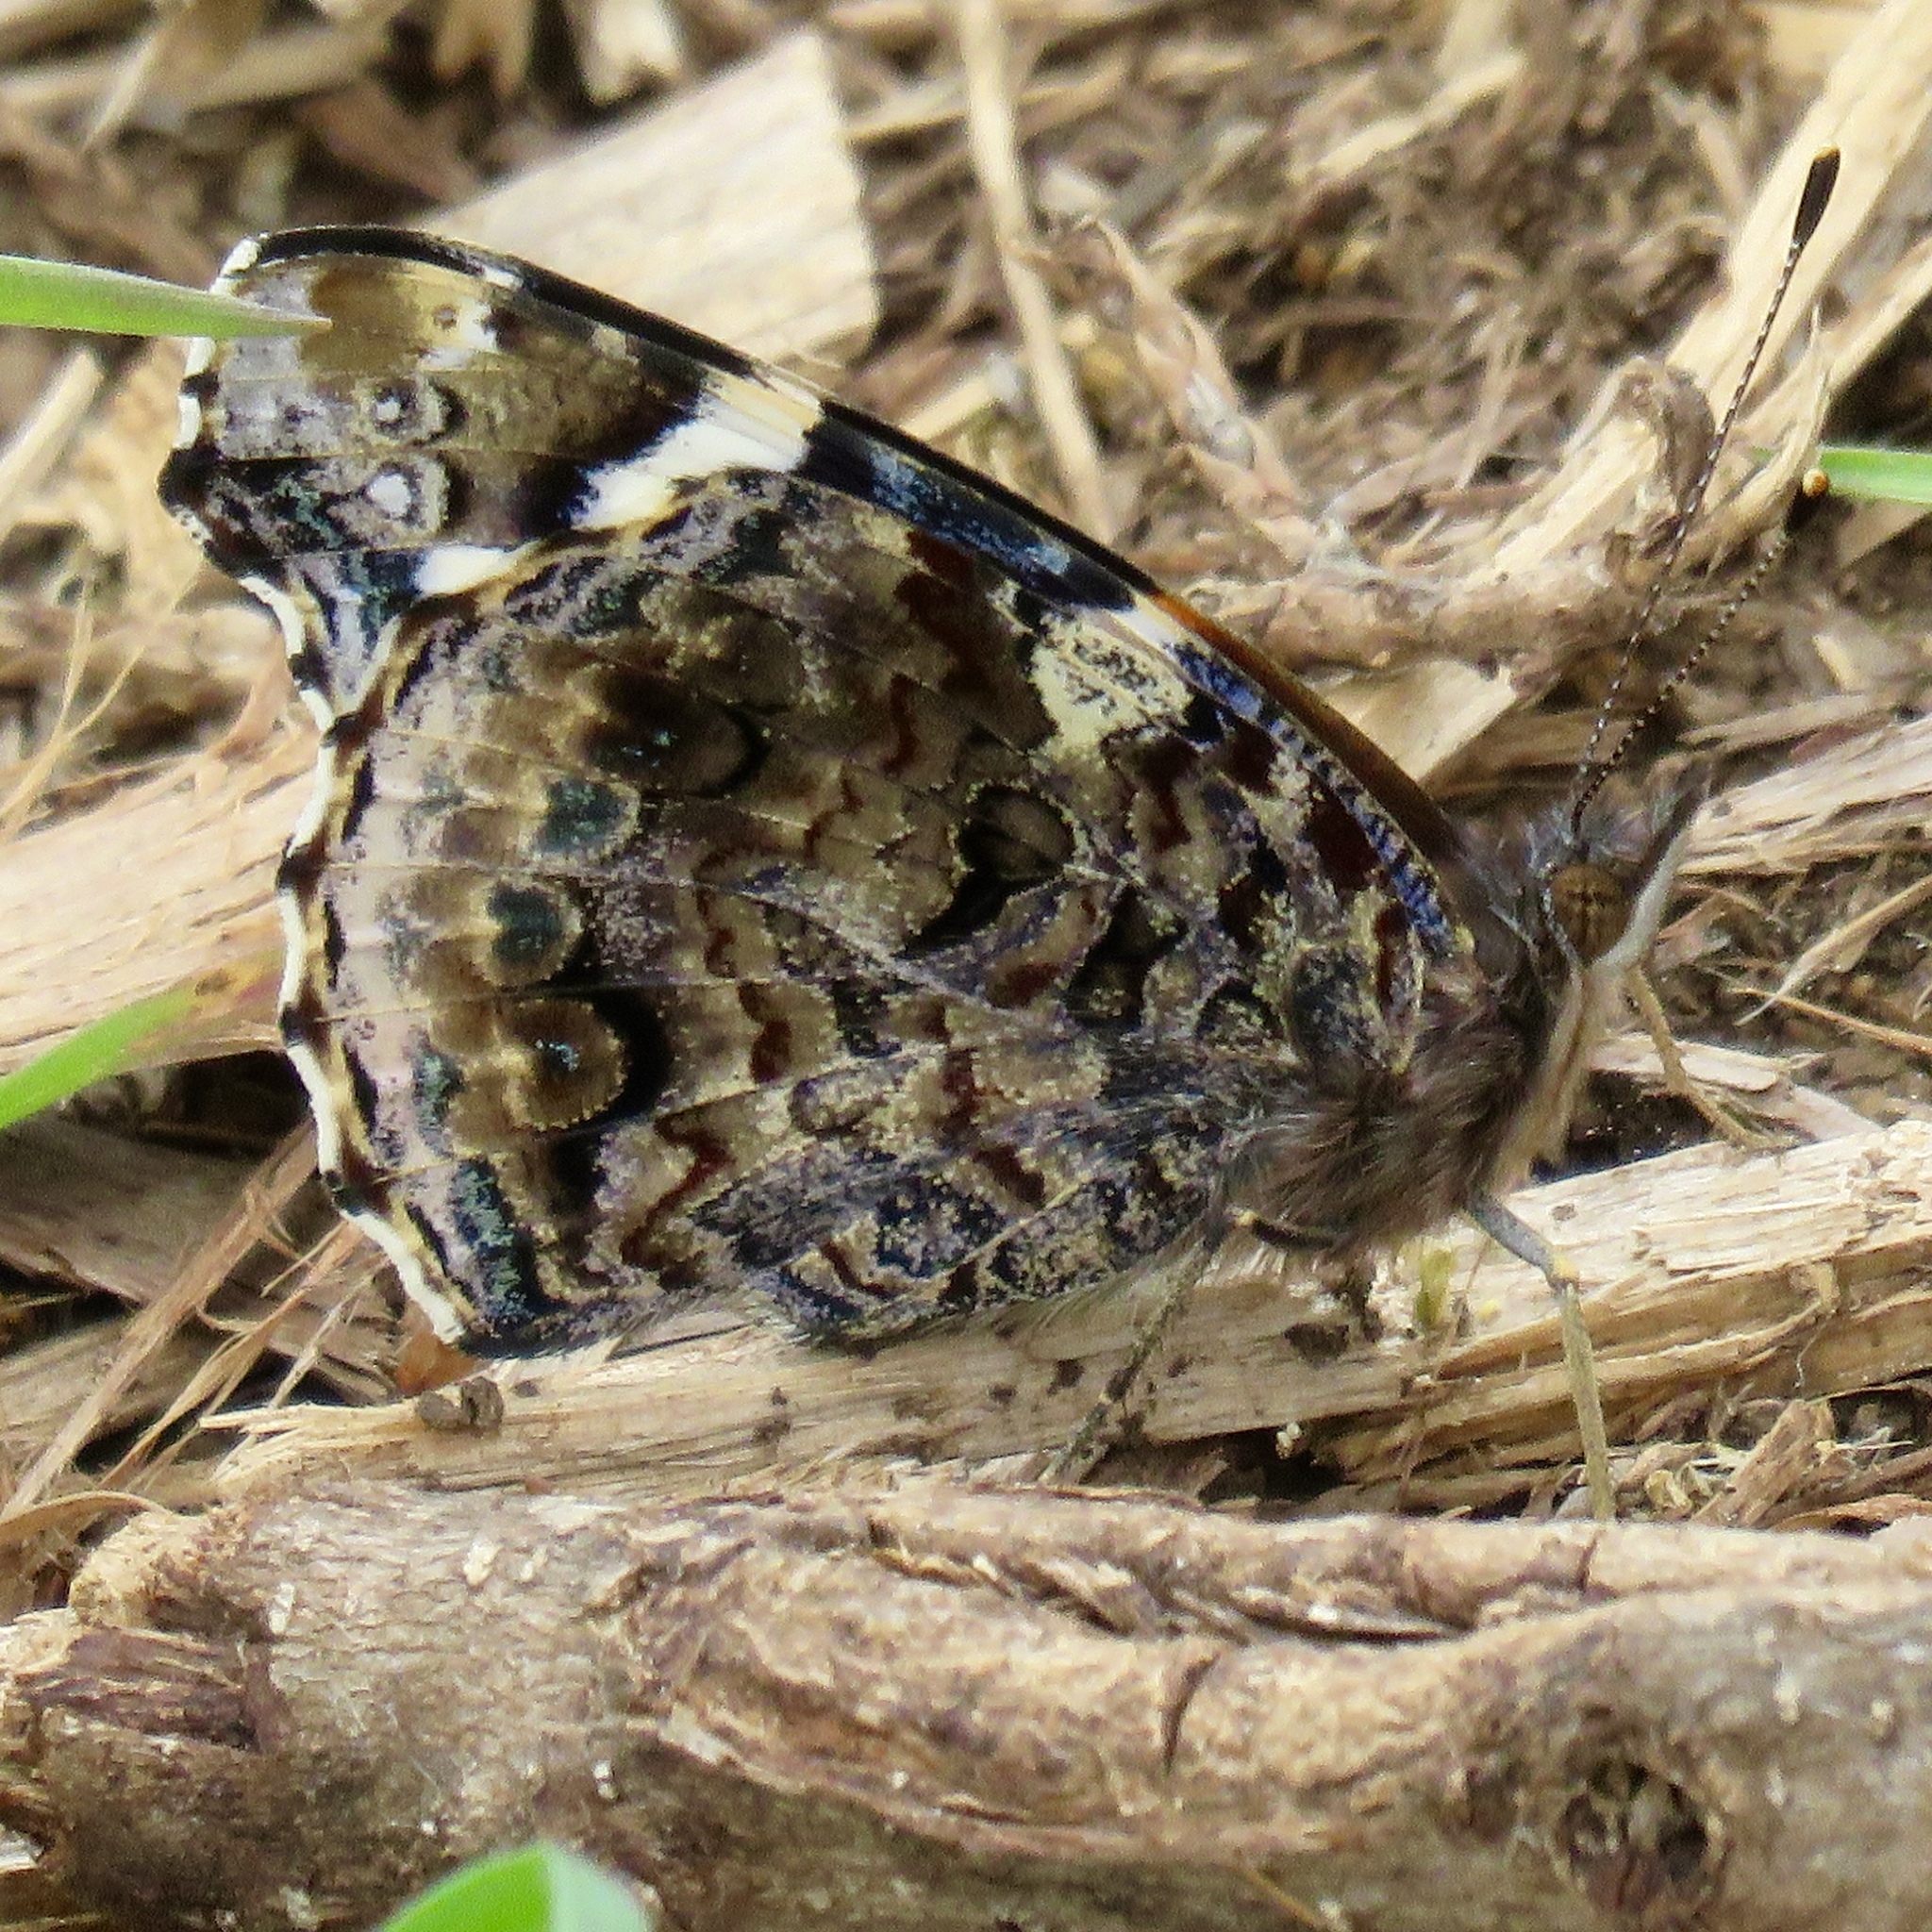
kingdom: Animalia
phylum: Arthropoda
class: Insecta
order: Lepidoptera
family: Nymphalidae
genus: Vanessa
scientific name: Vanessa atalanta
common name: Red admiral
